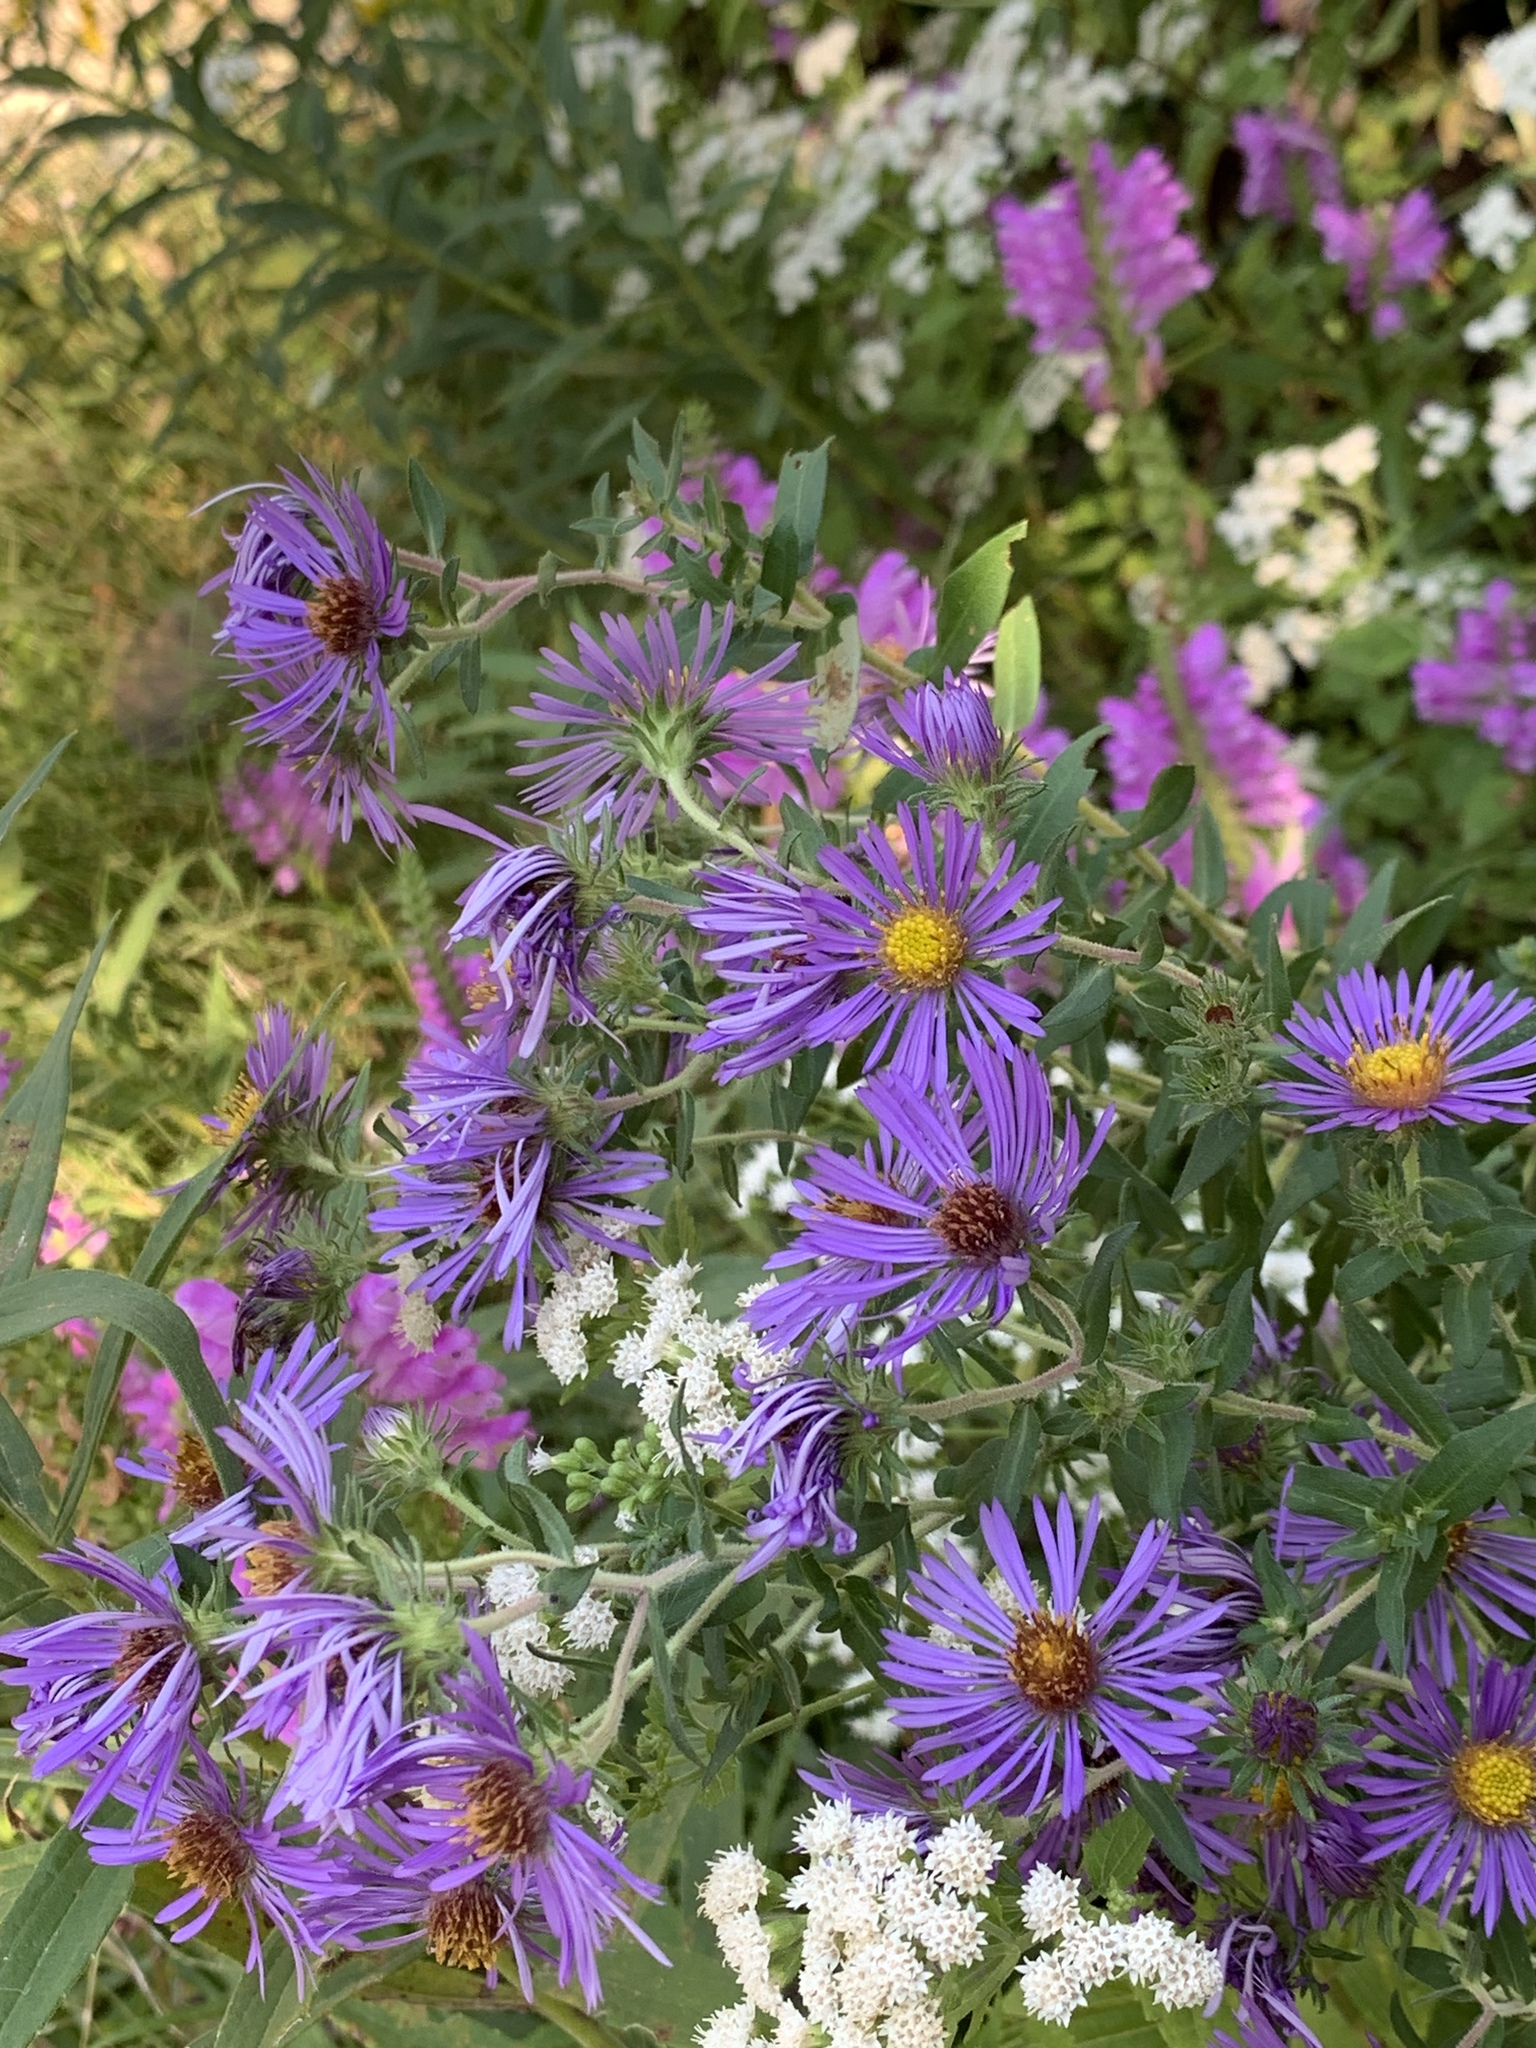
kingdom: Plantae
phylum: Tracheophyta
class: Magnoliopsida
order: Asterales
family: Asteraceae
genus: Symphyotrichum
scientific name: Symphyotrichum novae-angliae
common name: Michaelmas daisy
